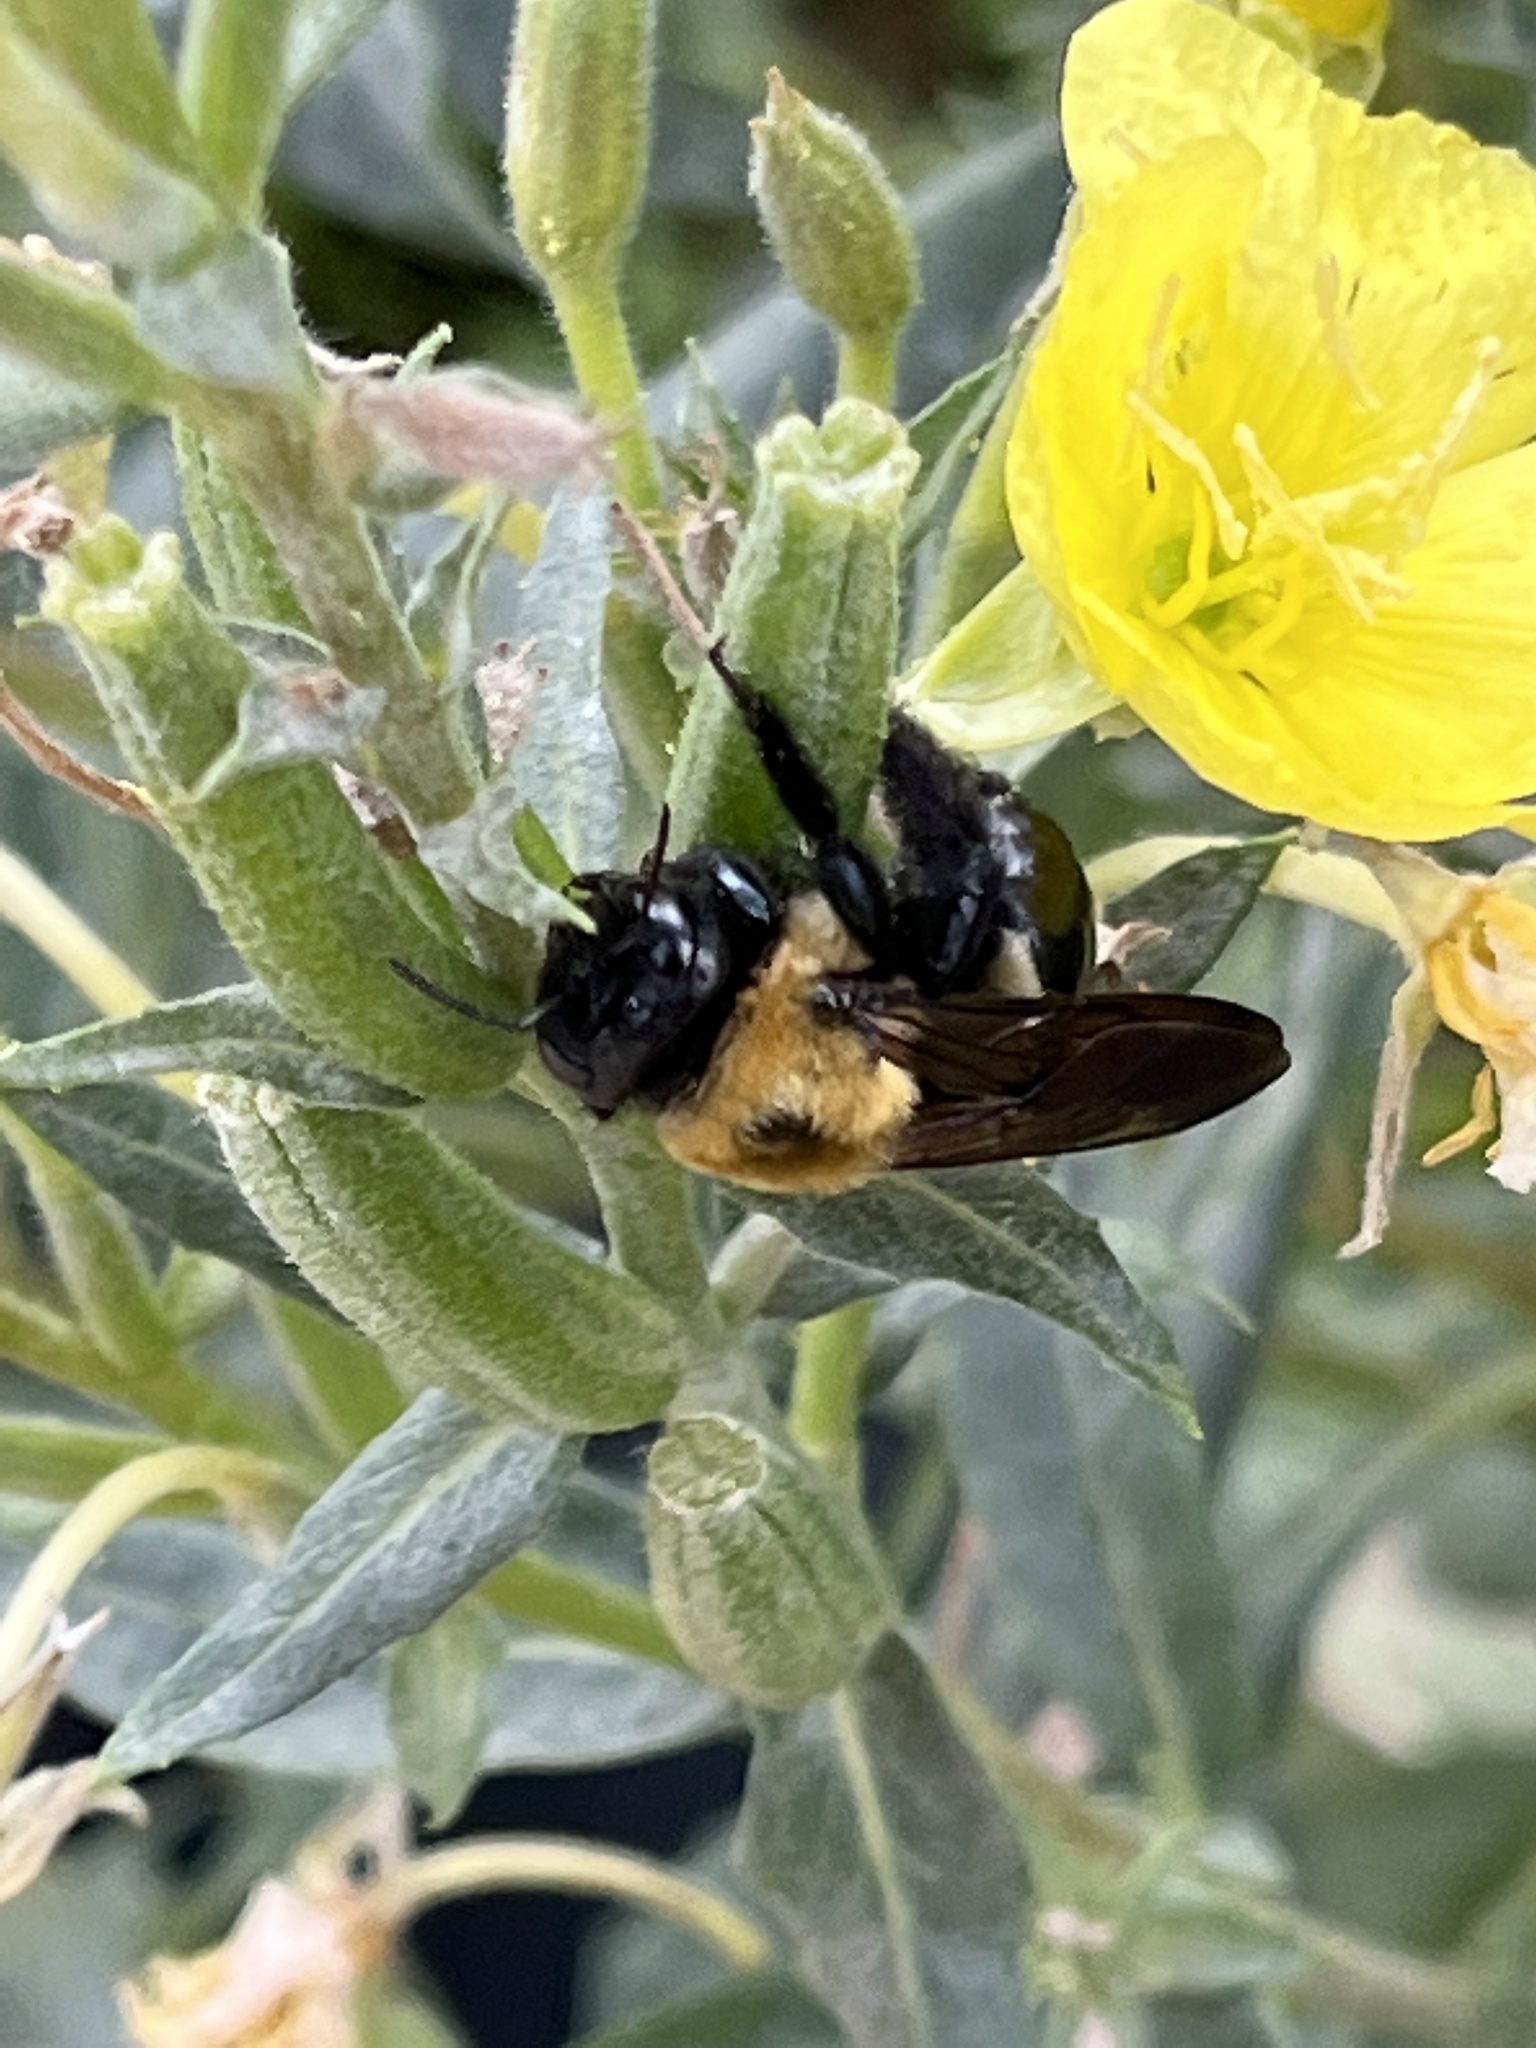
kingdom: Animalia
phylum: Arthropoda
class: Insecta
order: Hymenoptera
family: Apidae
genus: Xylocopa
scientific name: Xylocopa virginica
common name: Carpenter bee
